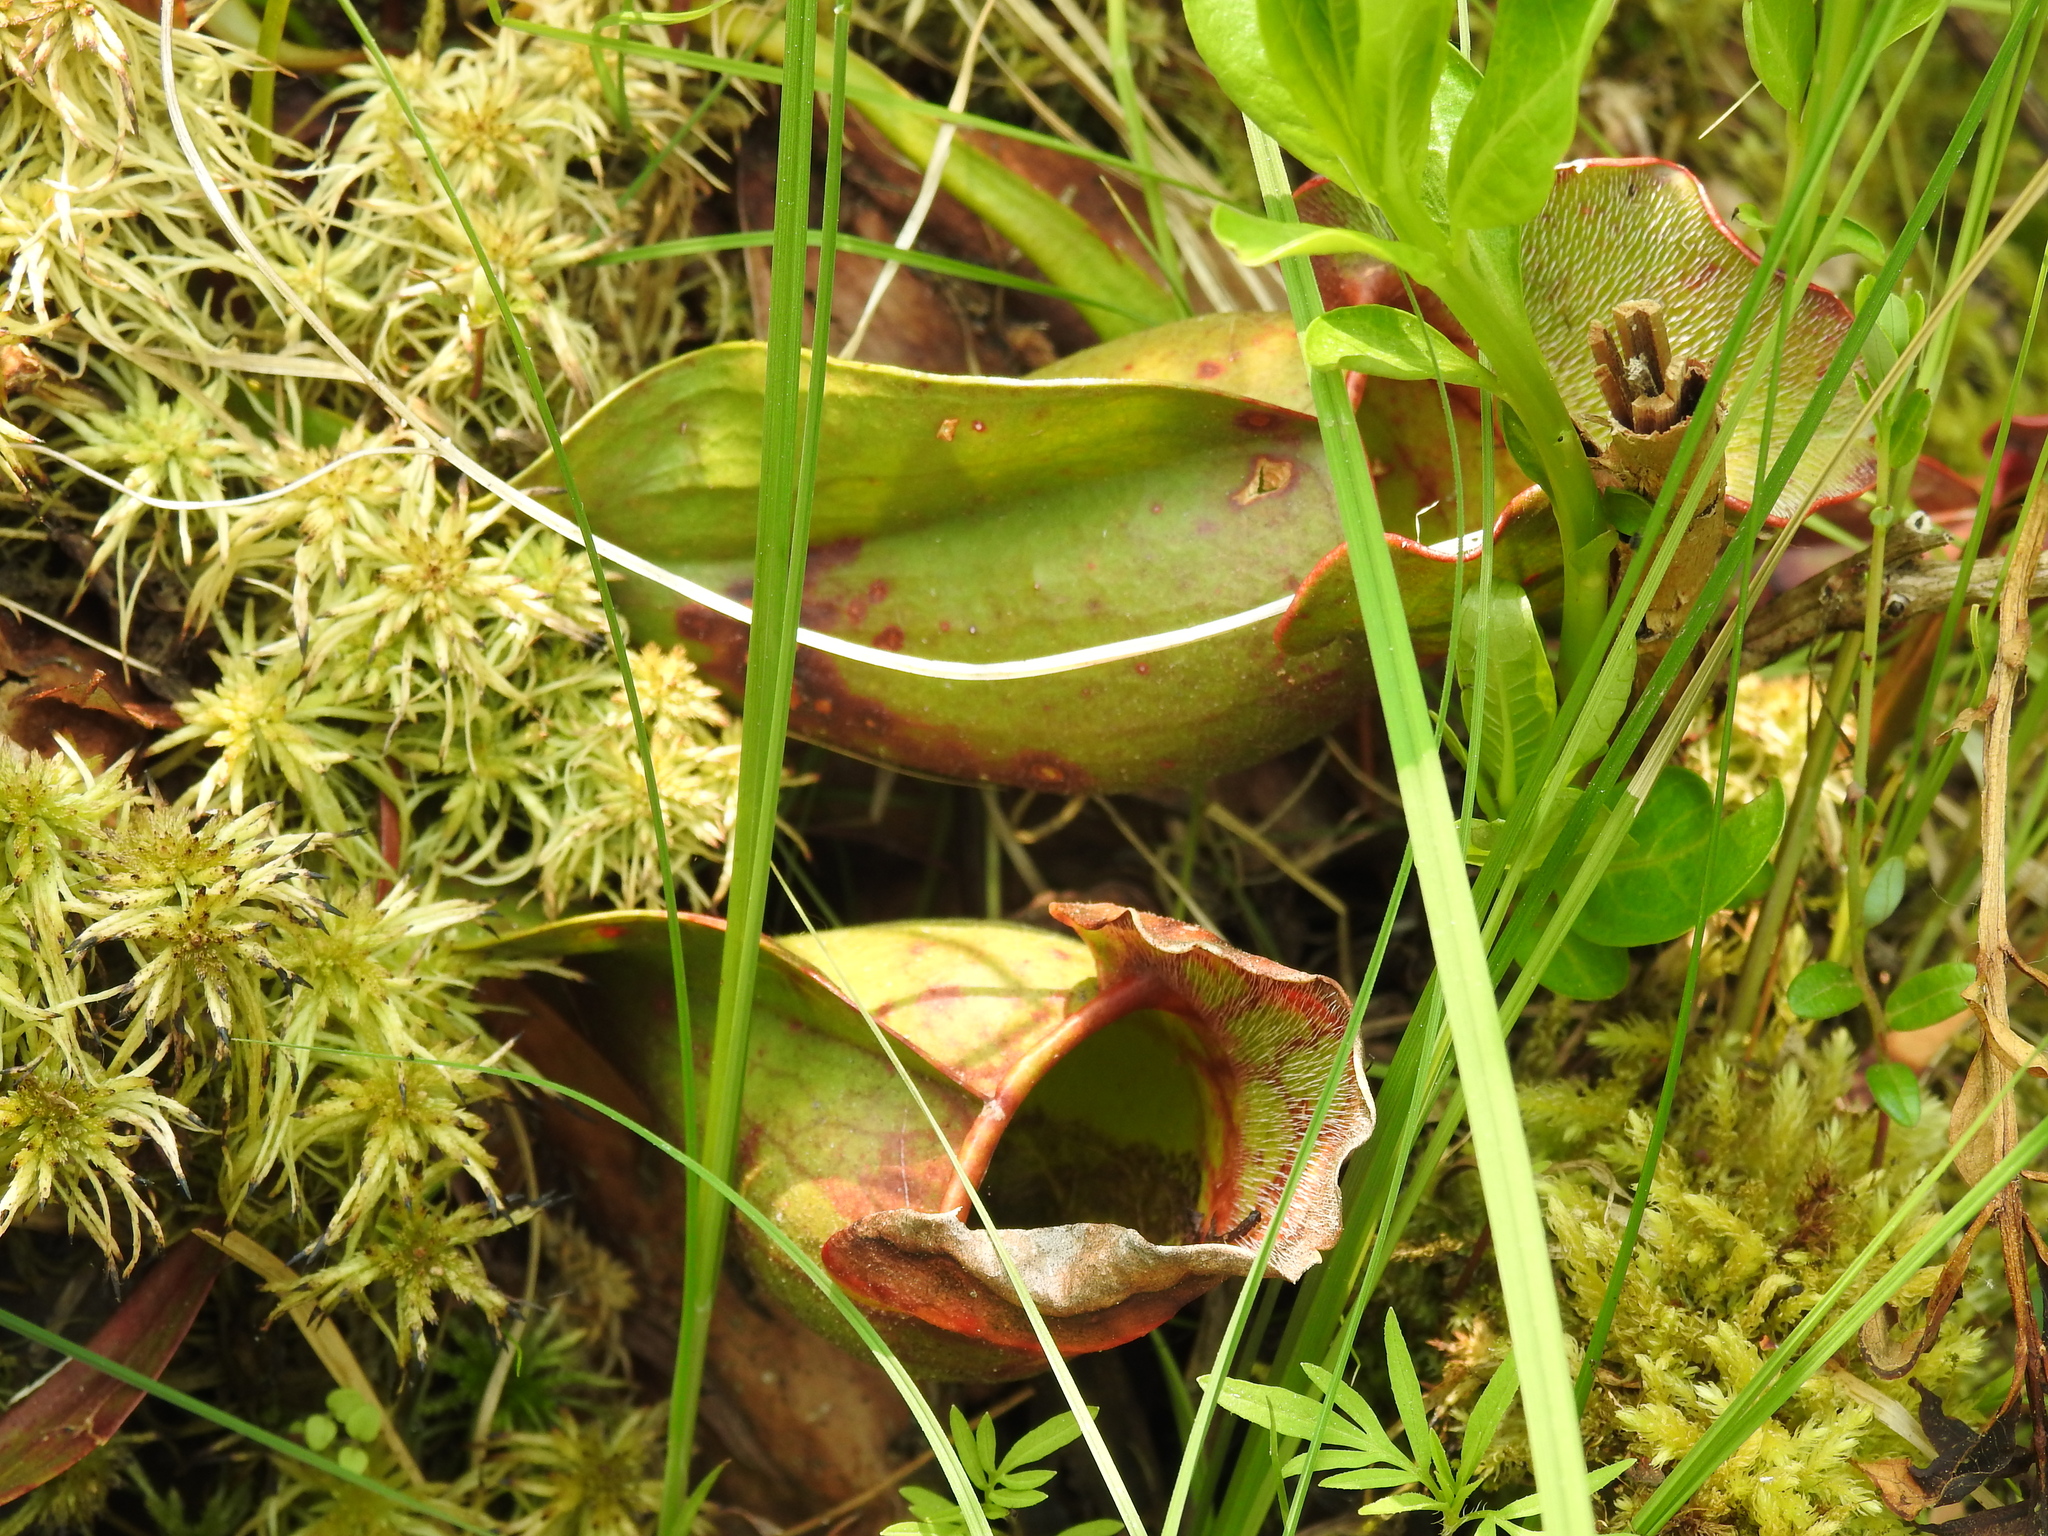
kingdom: Plantae
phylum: Tracheophyta
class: Magnoliopsida
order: Ericales
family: Sarraceniaceae
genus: Sarracenia
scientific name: Sarracenia purpurea
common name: Pitcherplant
